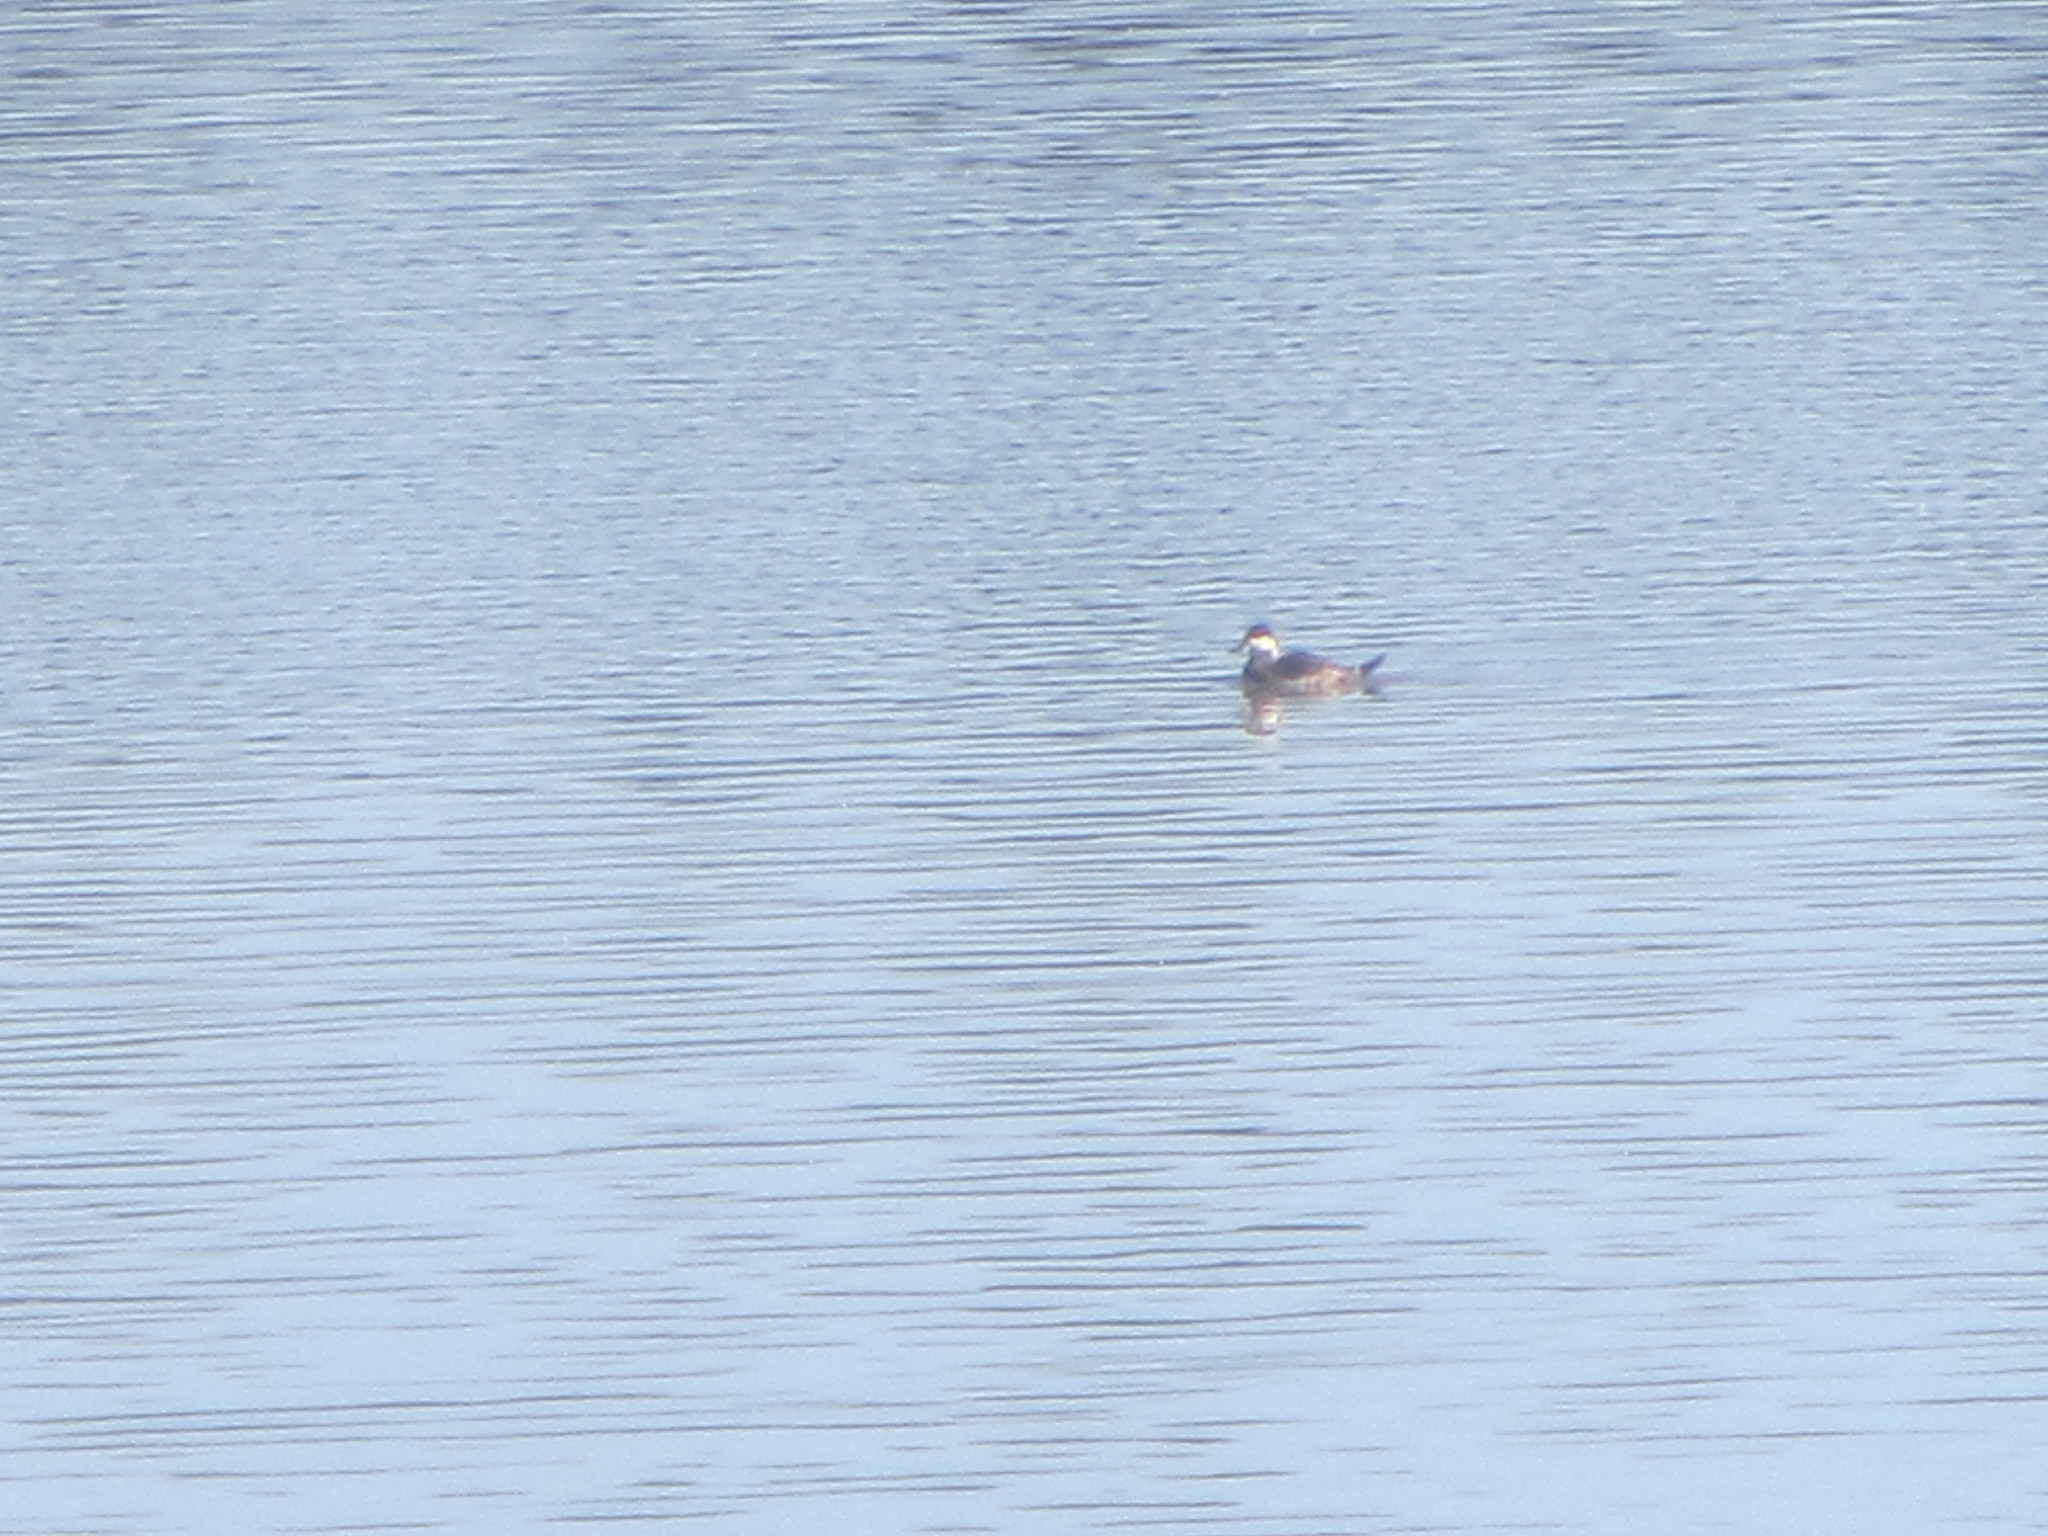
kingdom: Animalia
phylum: Chordata
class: Aves
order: Anseriformes
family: Anatidae
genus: Oxyura
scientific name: Oxyura jamaicensis
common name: Ruddy duck
